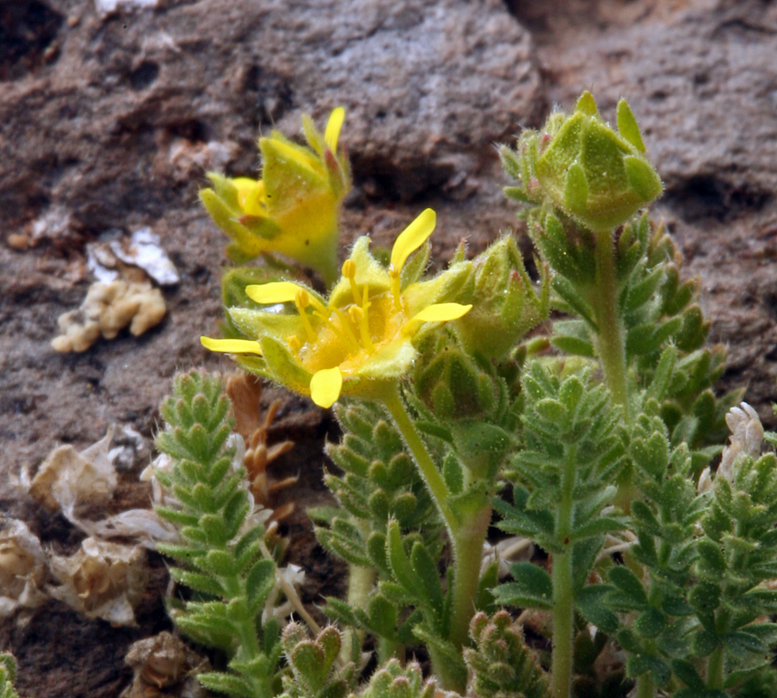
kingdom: Plantae
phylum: Tracheophyta
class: Magnoliopsida
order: Rosales
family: Rosaceae
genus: Potentilla
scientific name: Potentilla shockleyi
